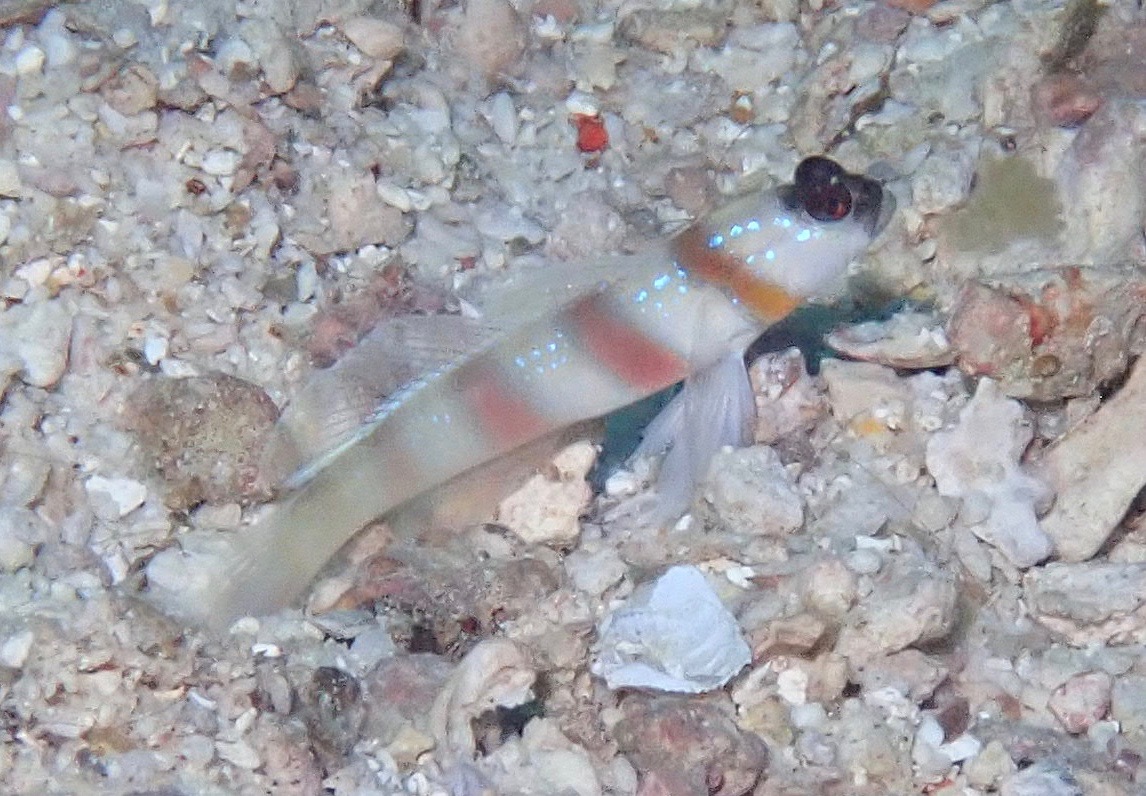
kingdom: Animalia
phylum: Chordata
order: Perciformes
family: Gobiidae
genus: Amblyeleotris
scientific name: Amblyeleotris steinitzi
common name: Steinitz' prawn-goby
